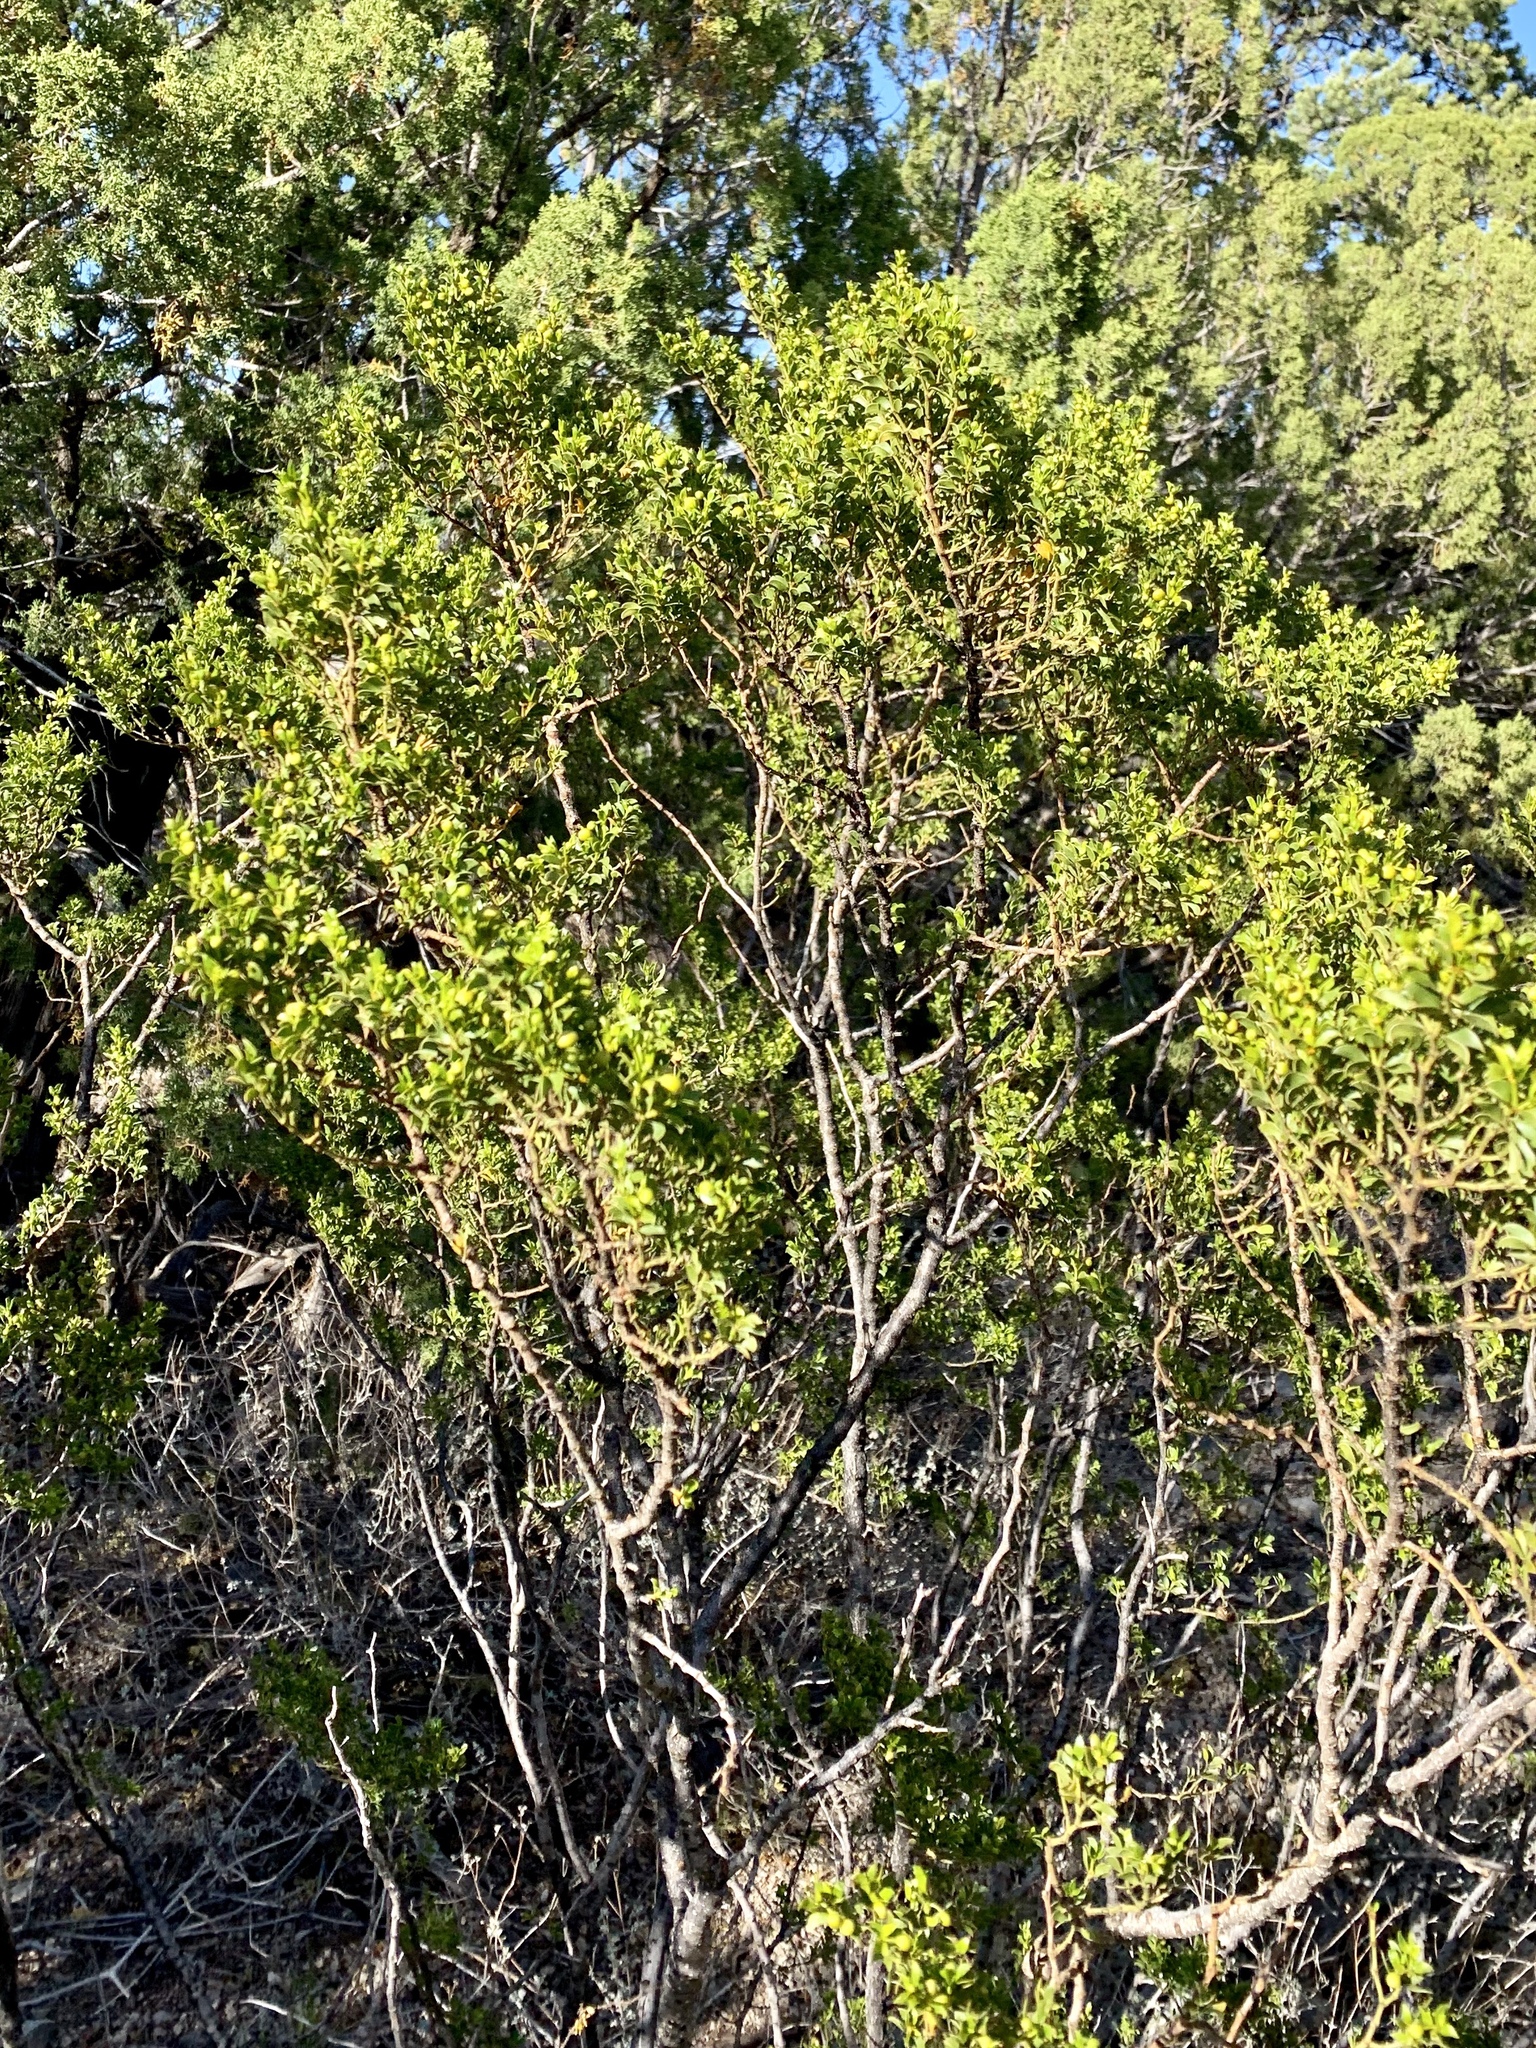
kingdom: Plantae
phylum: Tracheophyta
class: Magnoliopsida
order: Zygophyllales
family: Zygophyllaceae
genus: Larrea
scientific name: Larrea tridentata
